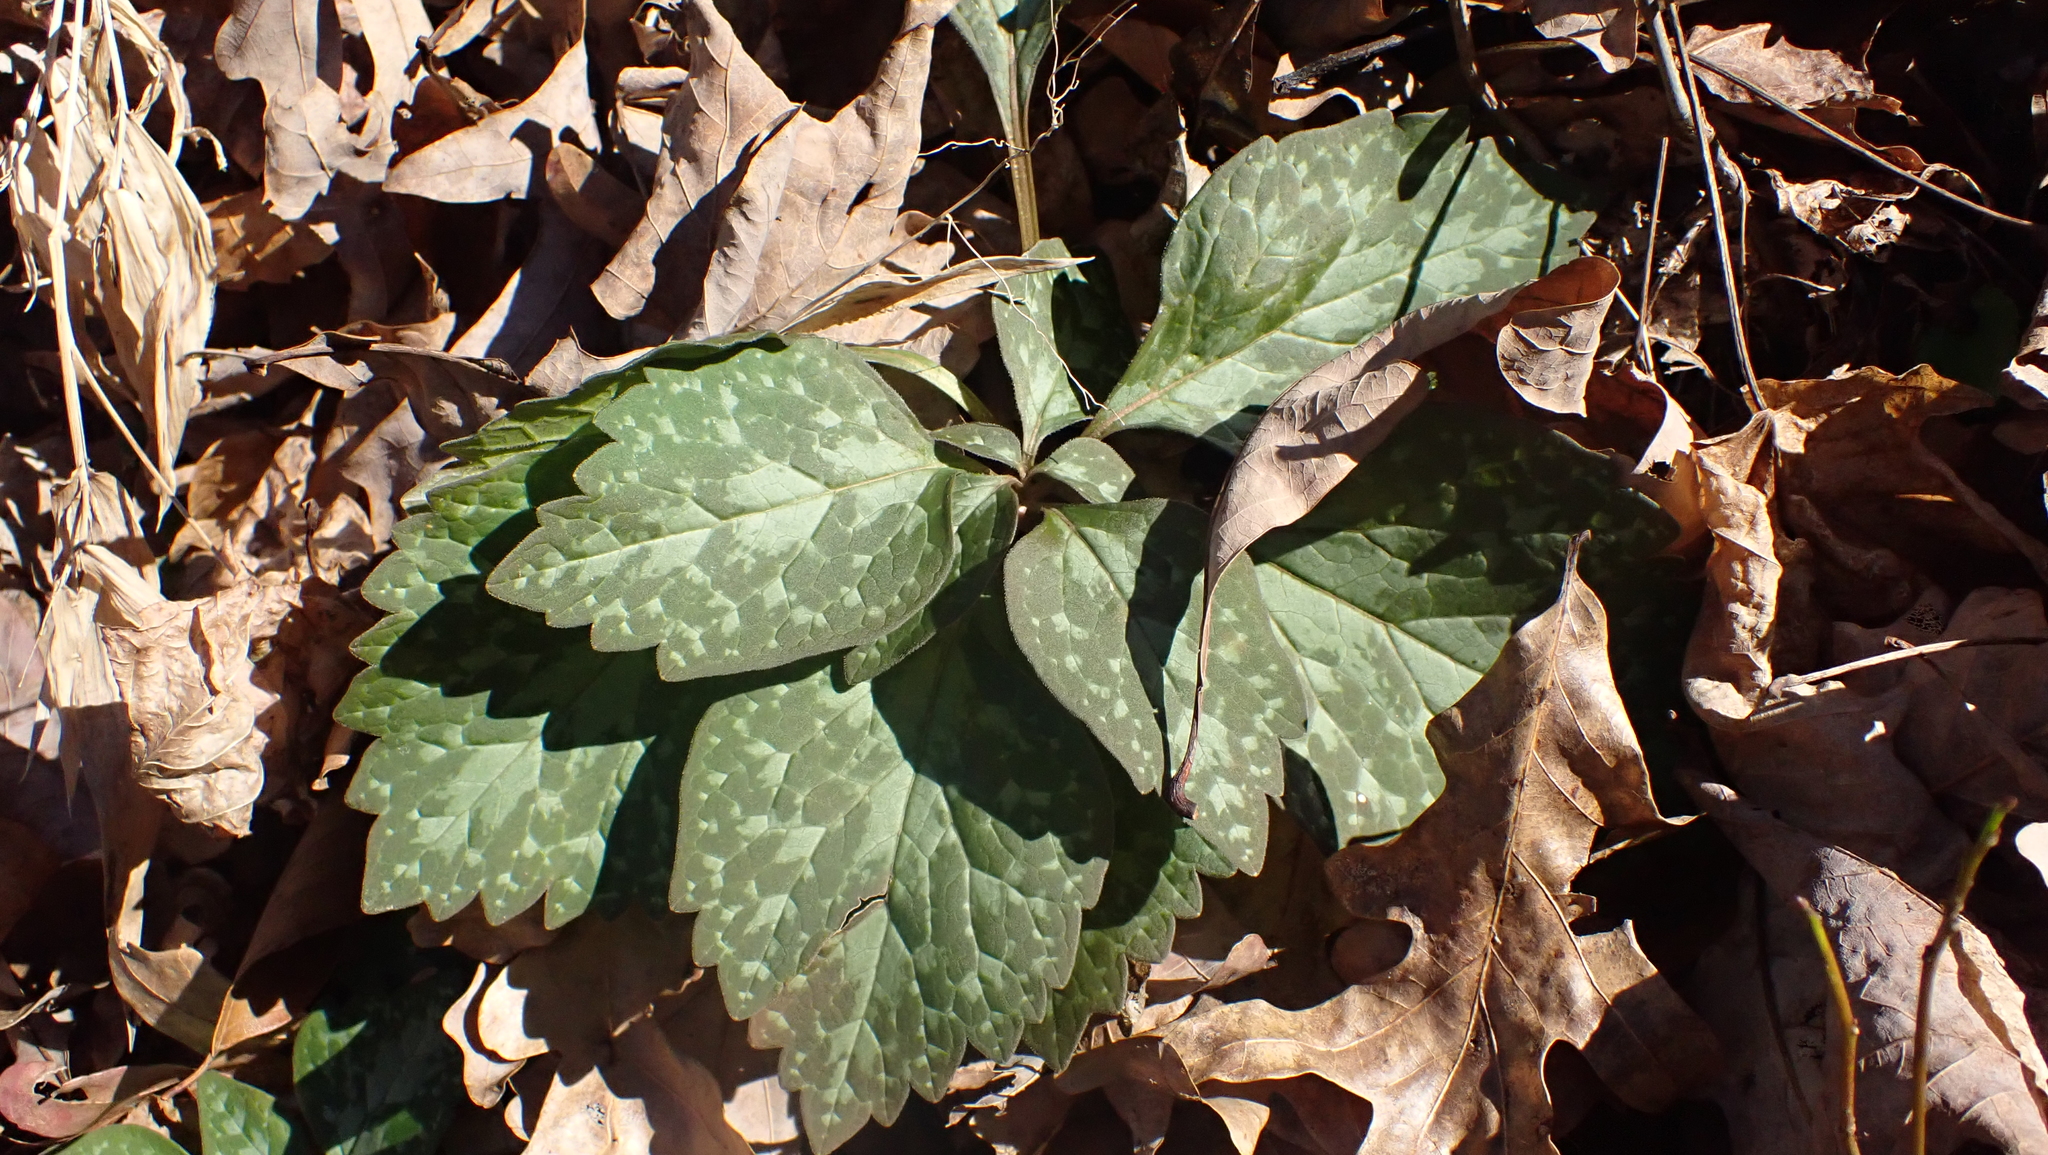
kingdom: Plantae
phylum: Tracheophyta
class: Magnoliopsida
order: Buxales
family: Buxaceae
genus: Pachysandra
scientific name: Pachysandra procumbens
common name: Mountain-spurge
